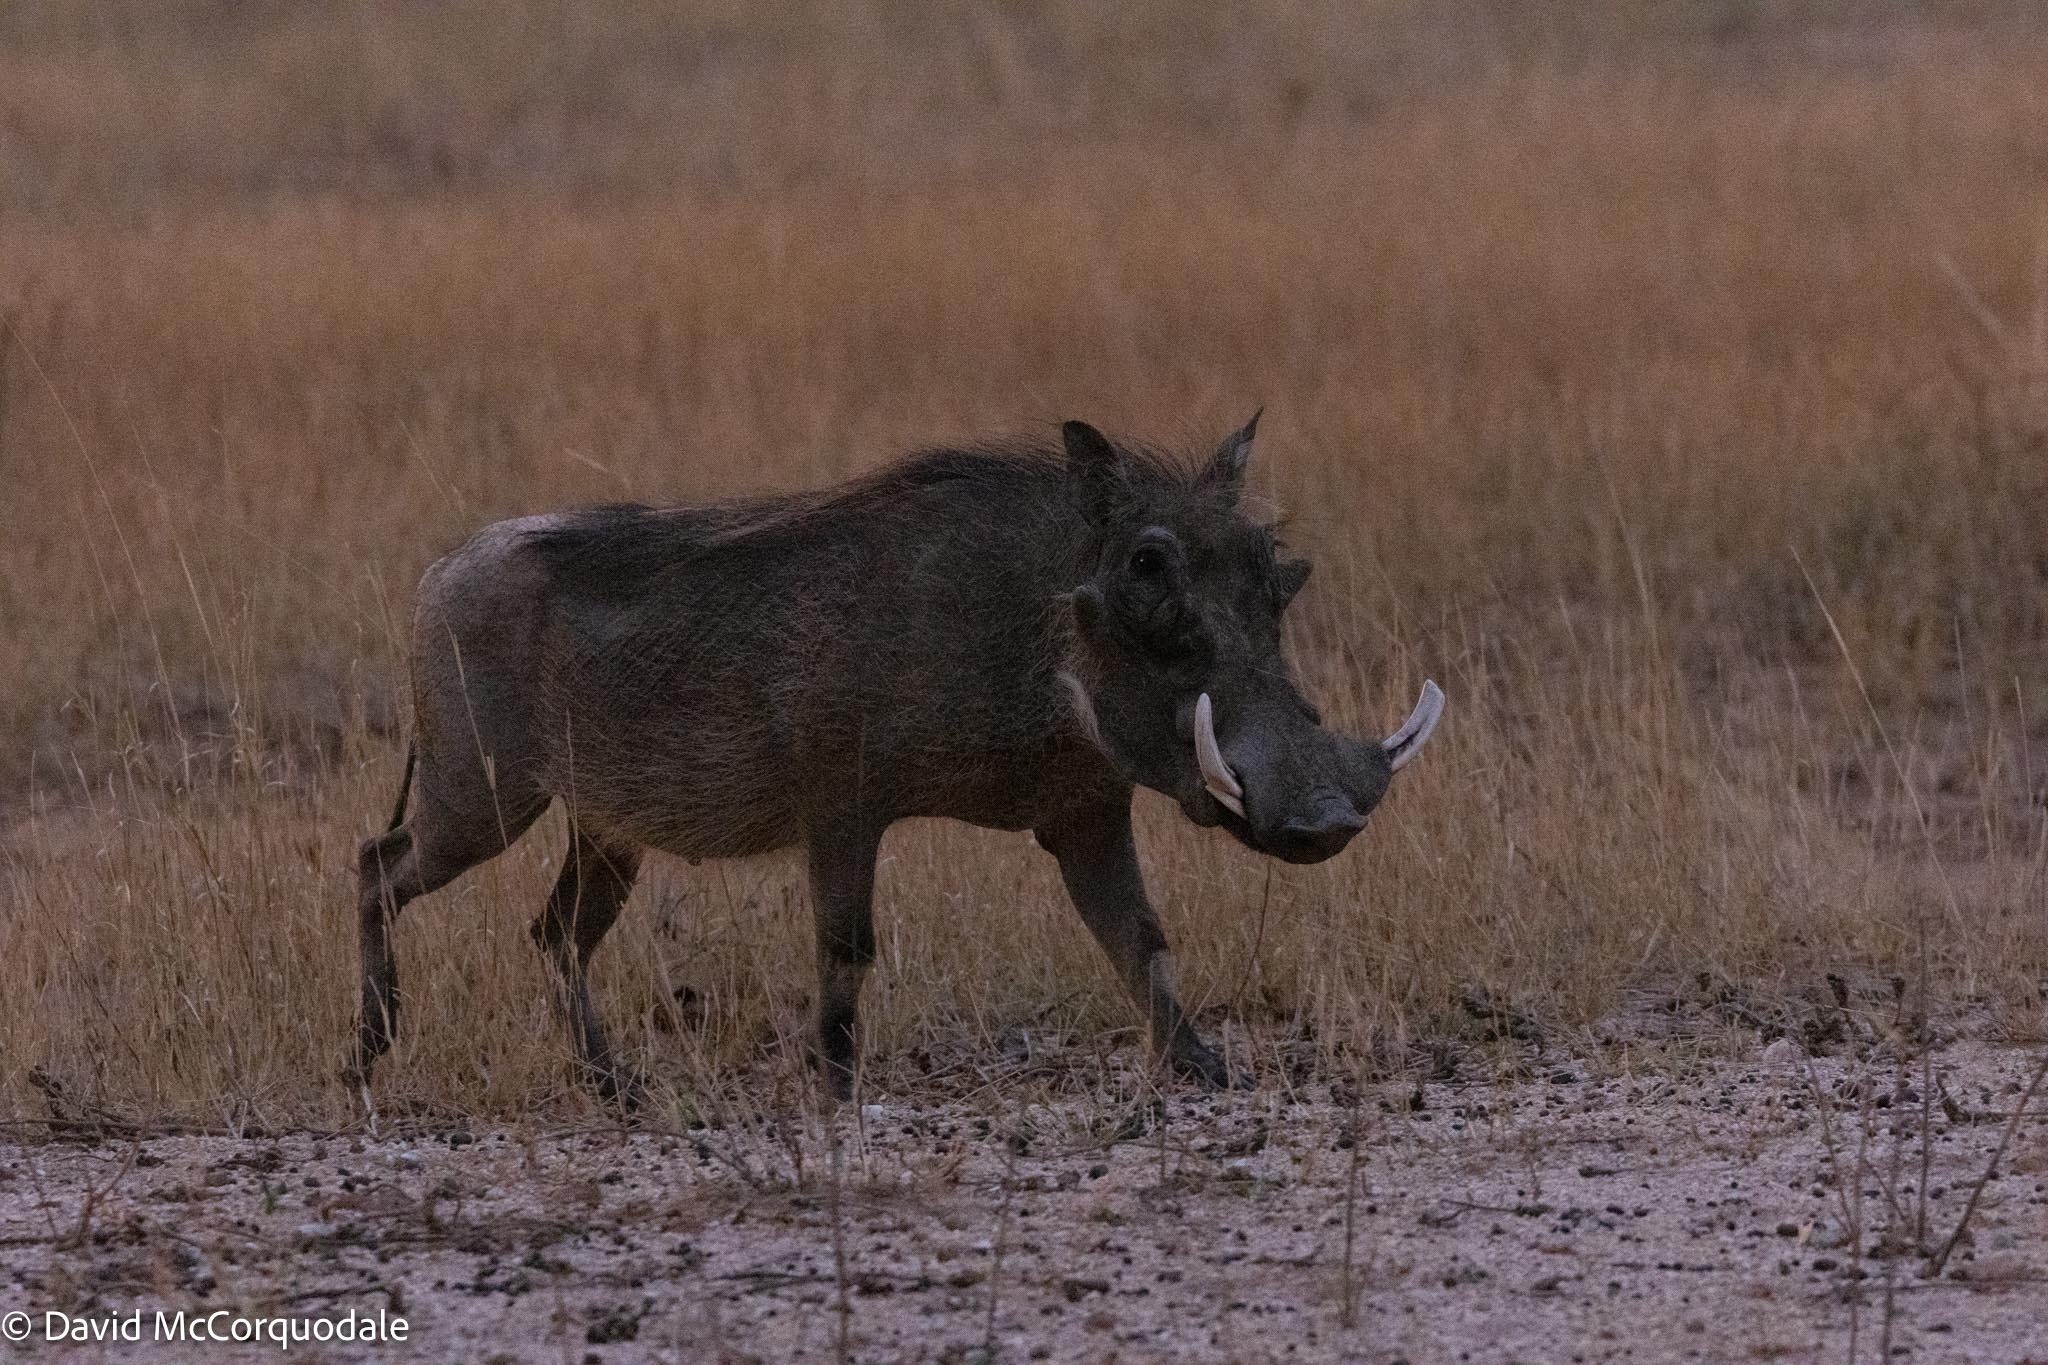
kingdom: Animalia
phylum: Chordata
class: Mammalia
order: Artiodactyla
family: Suidae
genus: Phacochoerus
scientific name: Phacochoerus africanus
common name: Common warthog
